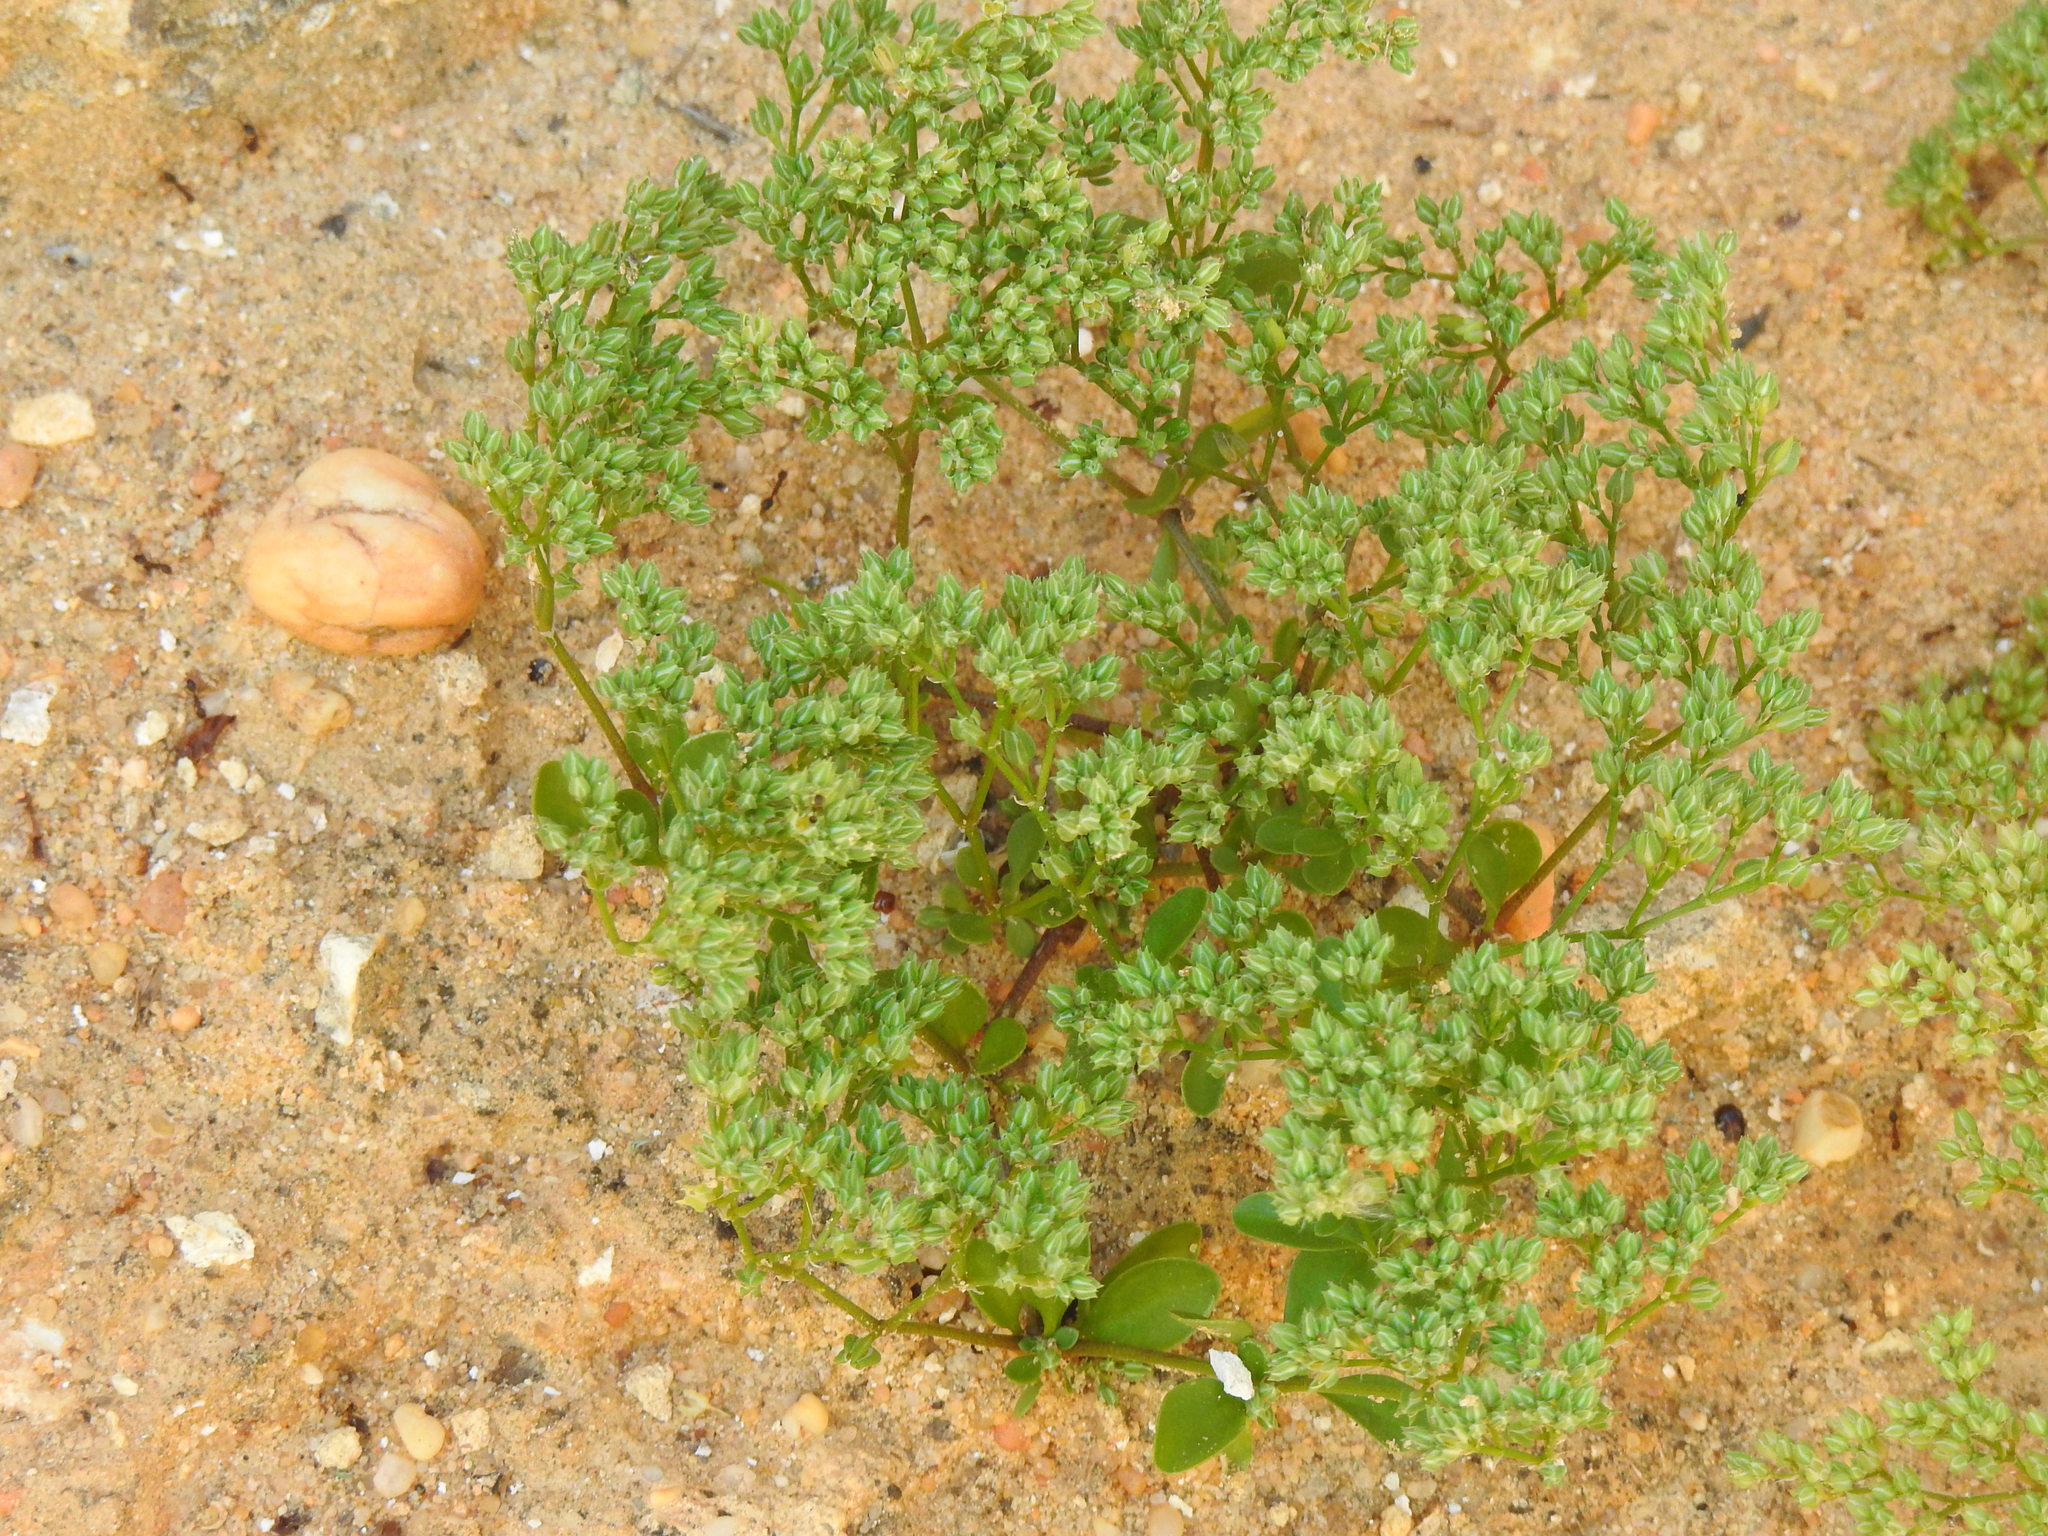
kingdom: Plantae
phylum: Tracheophyta
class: Magnoliopsida
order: Caryophyllales
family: Caryophyllaceae
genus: Polycarpon
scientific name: Polycarpon tetraphyllum
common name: Four-leaved all-seed
